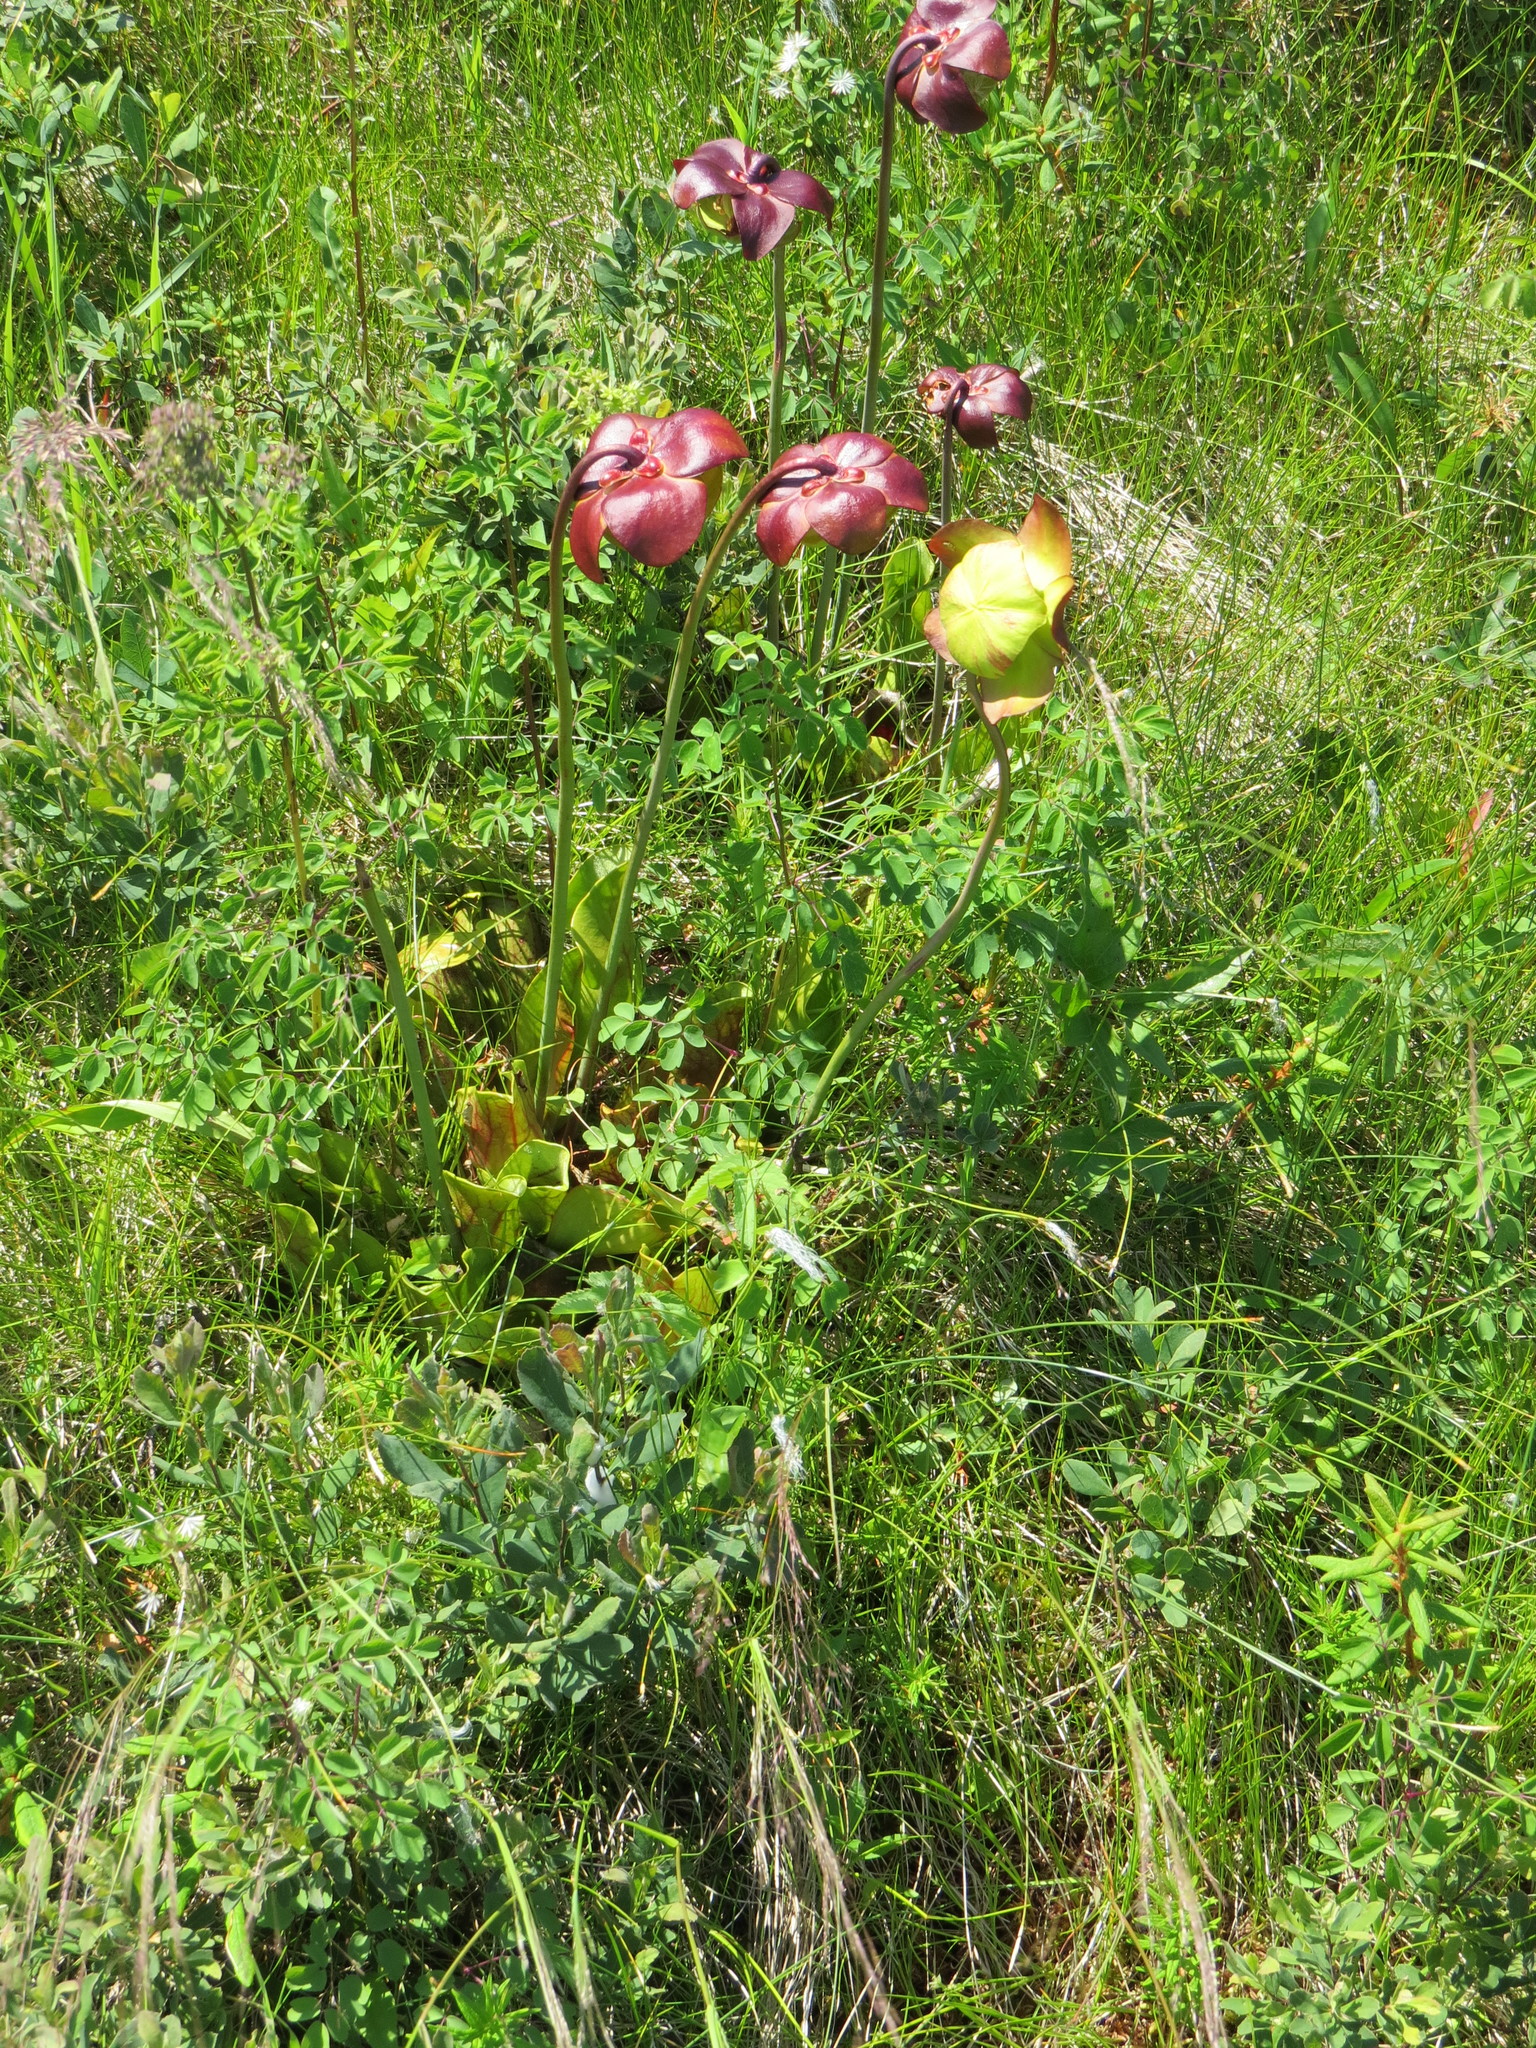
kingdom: Plantae
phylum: Tracheophyta
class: Magnoliopsida
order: Ericales
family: Sarraceniaceae
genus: Sarracenia
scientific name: Sarracenia purpurea
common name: Pitcherplant
